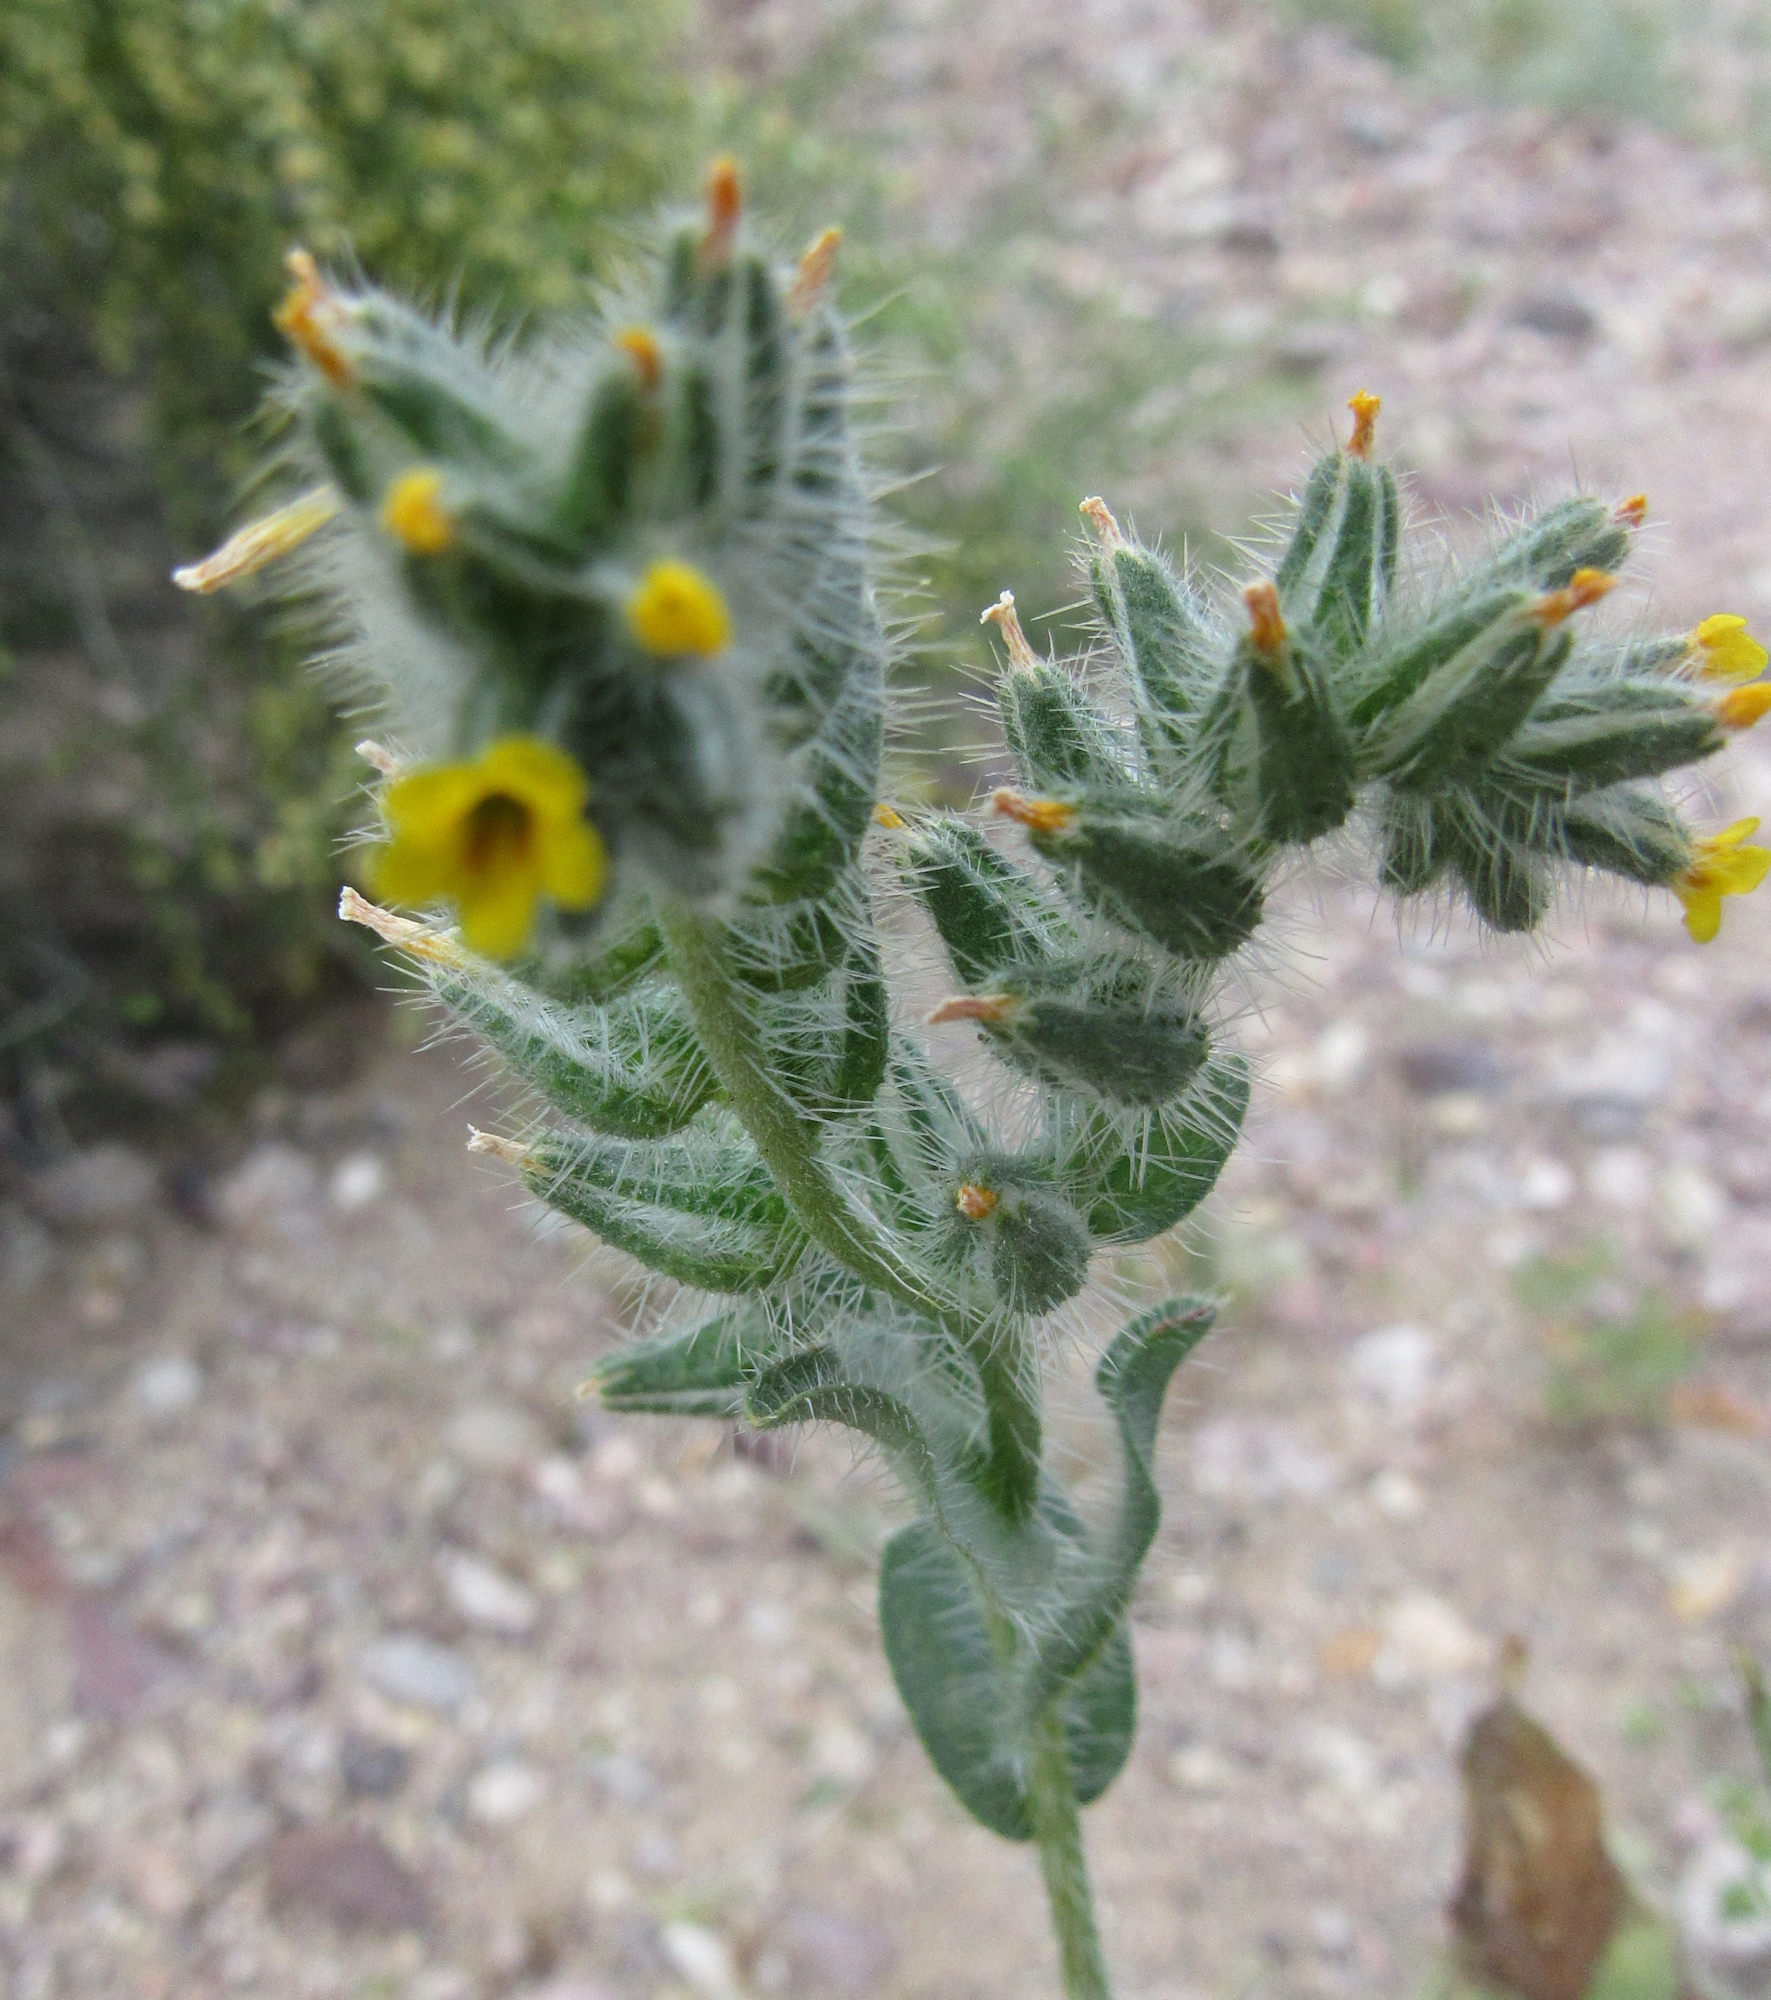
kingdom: Plantae
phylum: Tracheophyta
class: Magnoliopsida
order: Boraginales
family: Boraginaceae
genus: Amsinckia
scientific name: Amsinckia tessellata
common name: Tessellate fiddleneck
